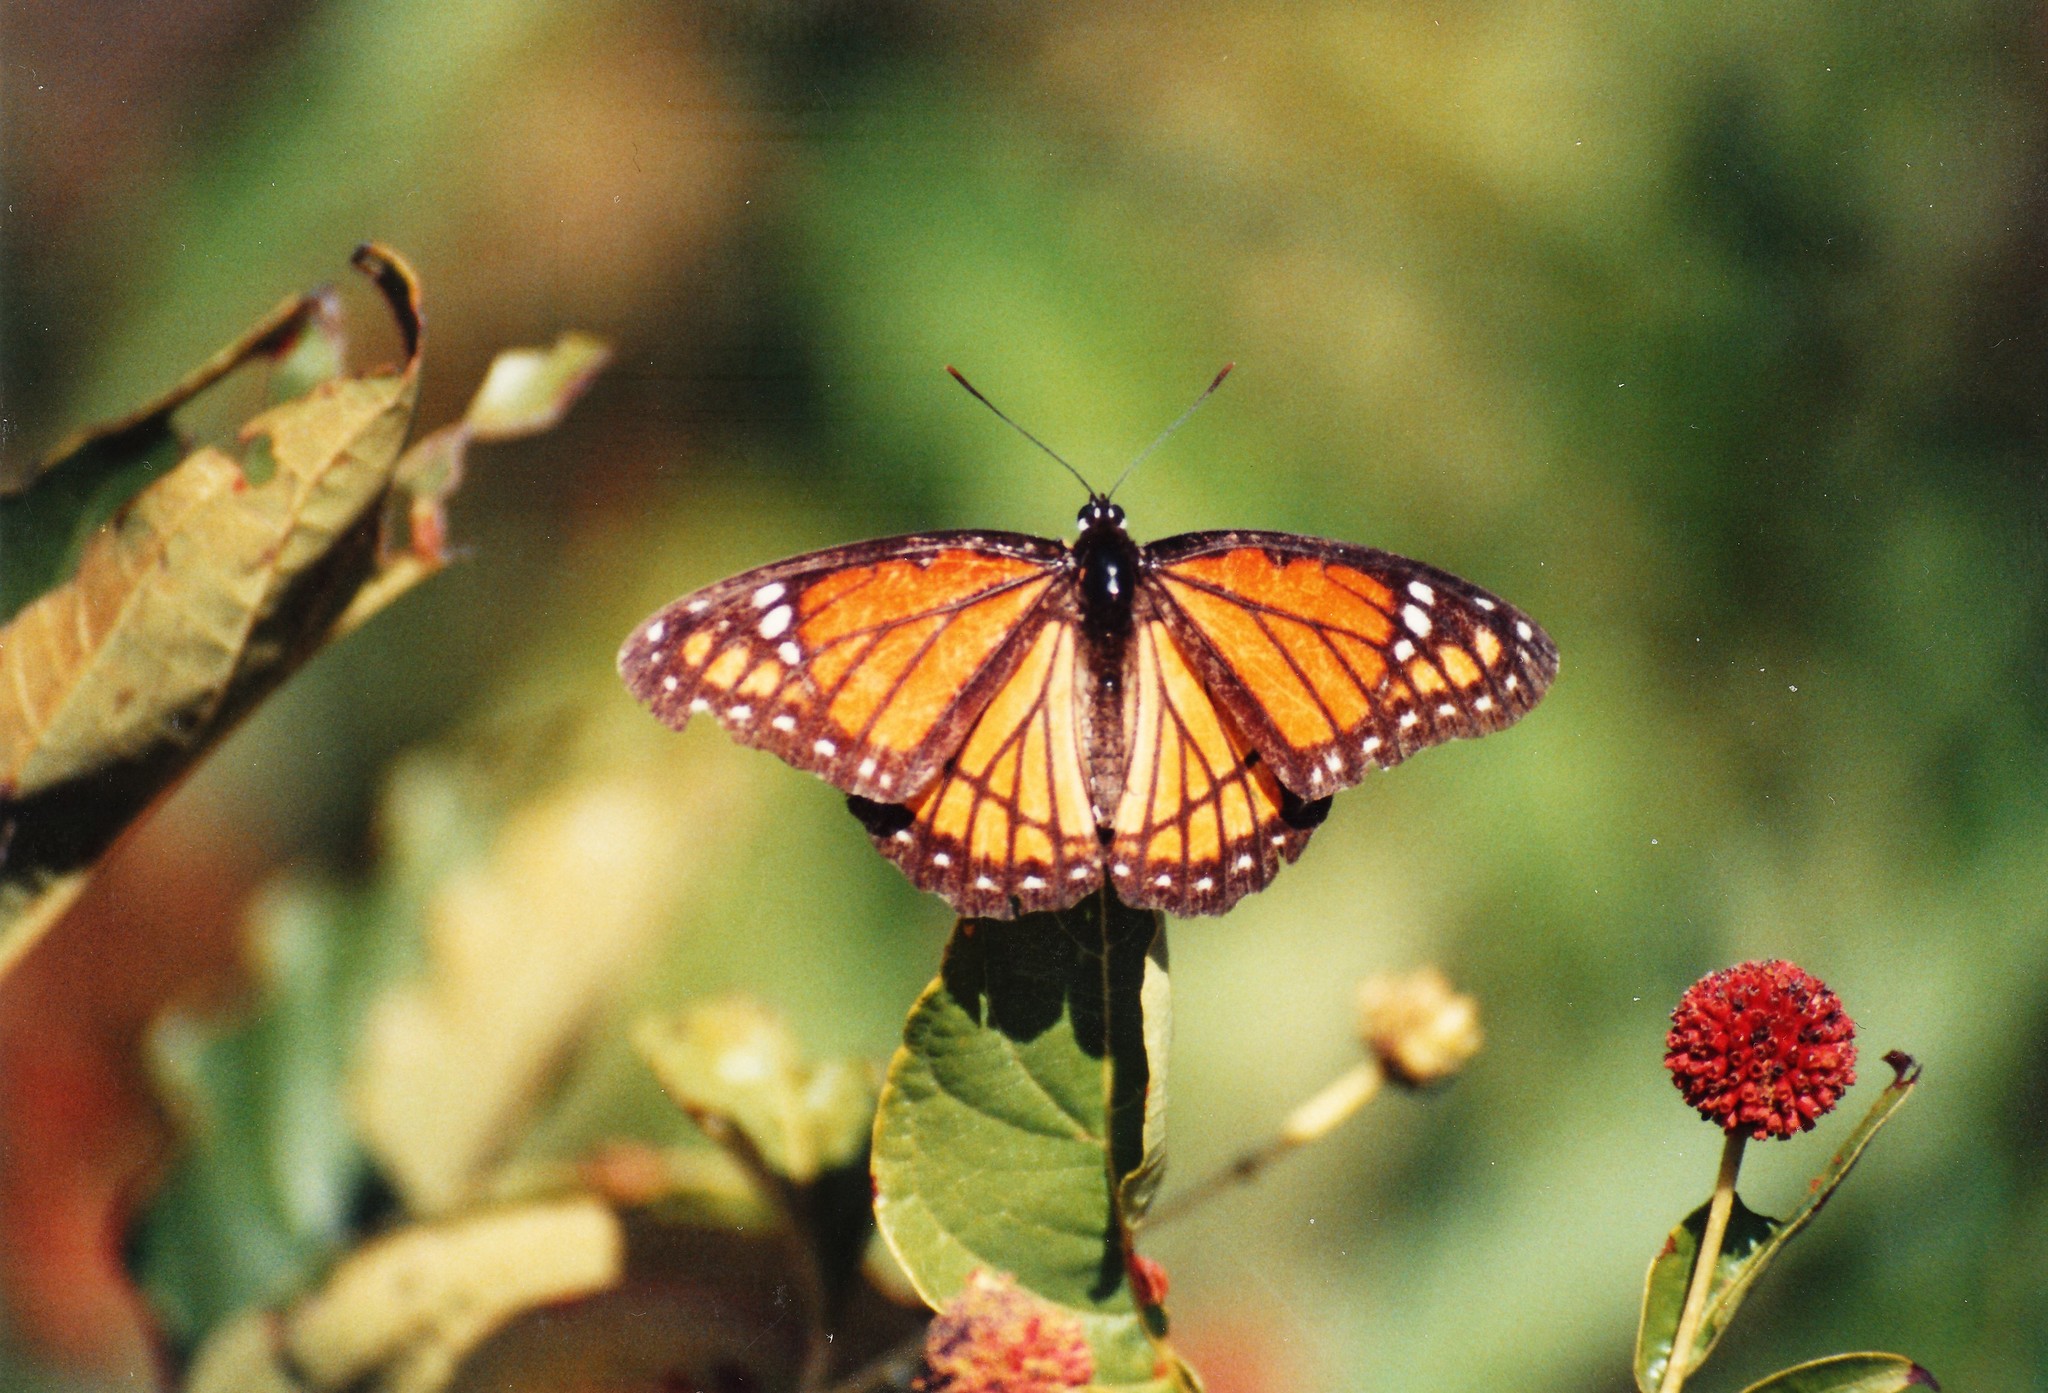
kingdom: Animalia
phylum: Arthropoda
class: Insecta
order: Lepidoptera
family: Nymphalidae
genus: Limenitis
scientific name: Limenitis archippus
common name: Viceroy
